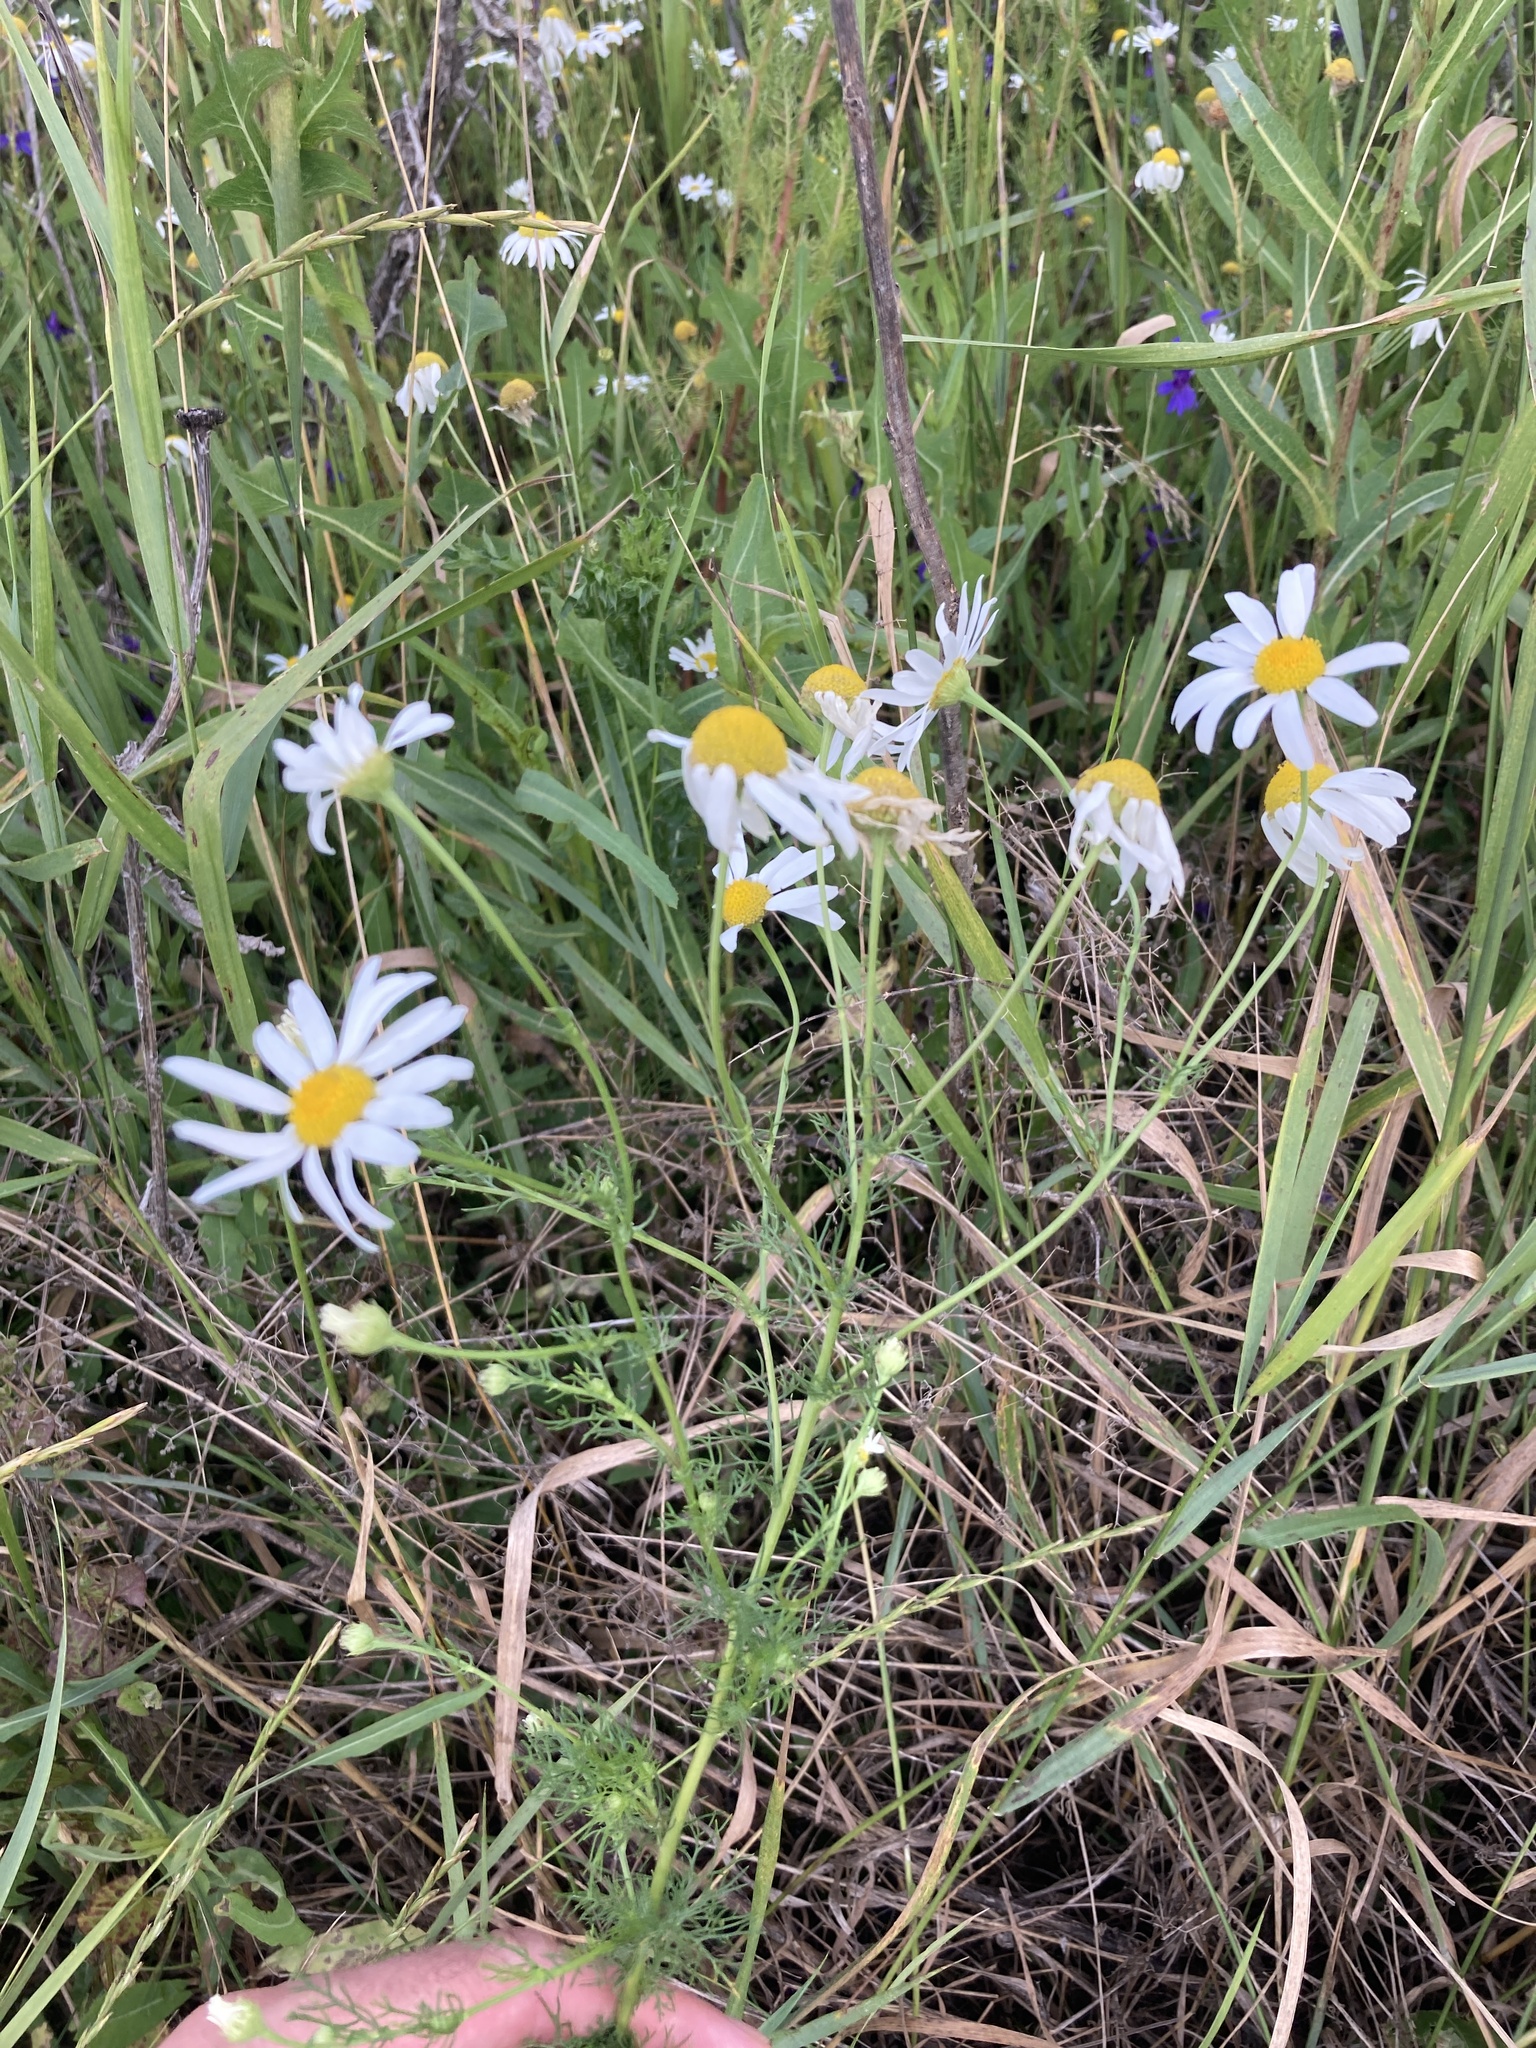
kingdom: Plantae
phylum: Tracheophyta
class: Magnoliopsida
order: Asterales
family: Asteraceae
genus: Tripleurospermum
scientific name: Tripleurospermum inodorum
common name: Scentless mayweed
